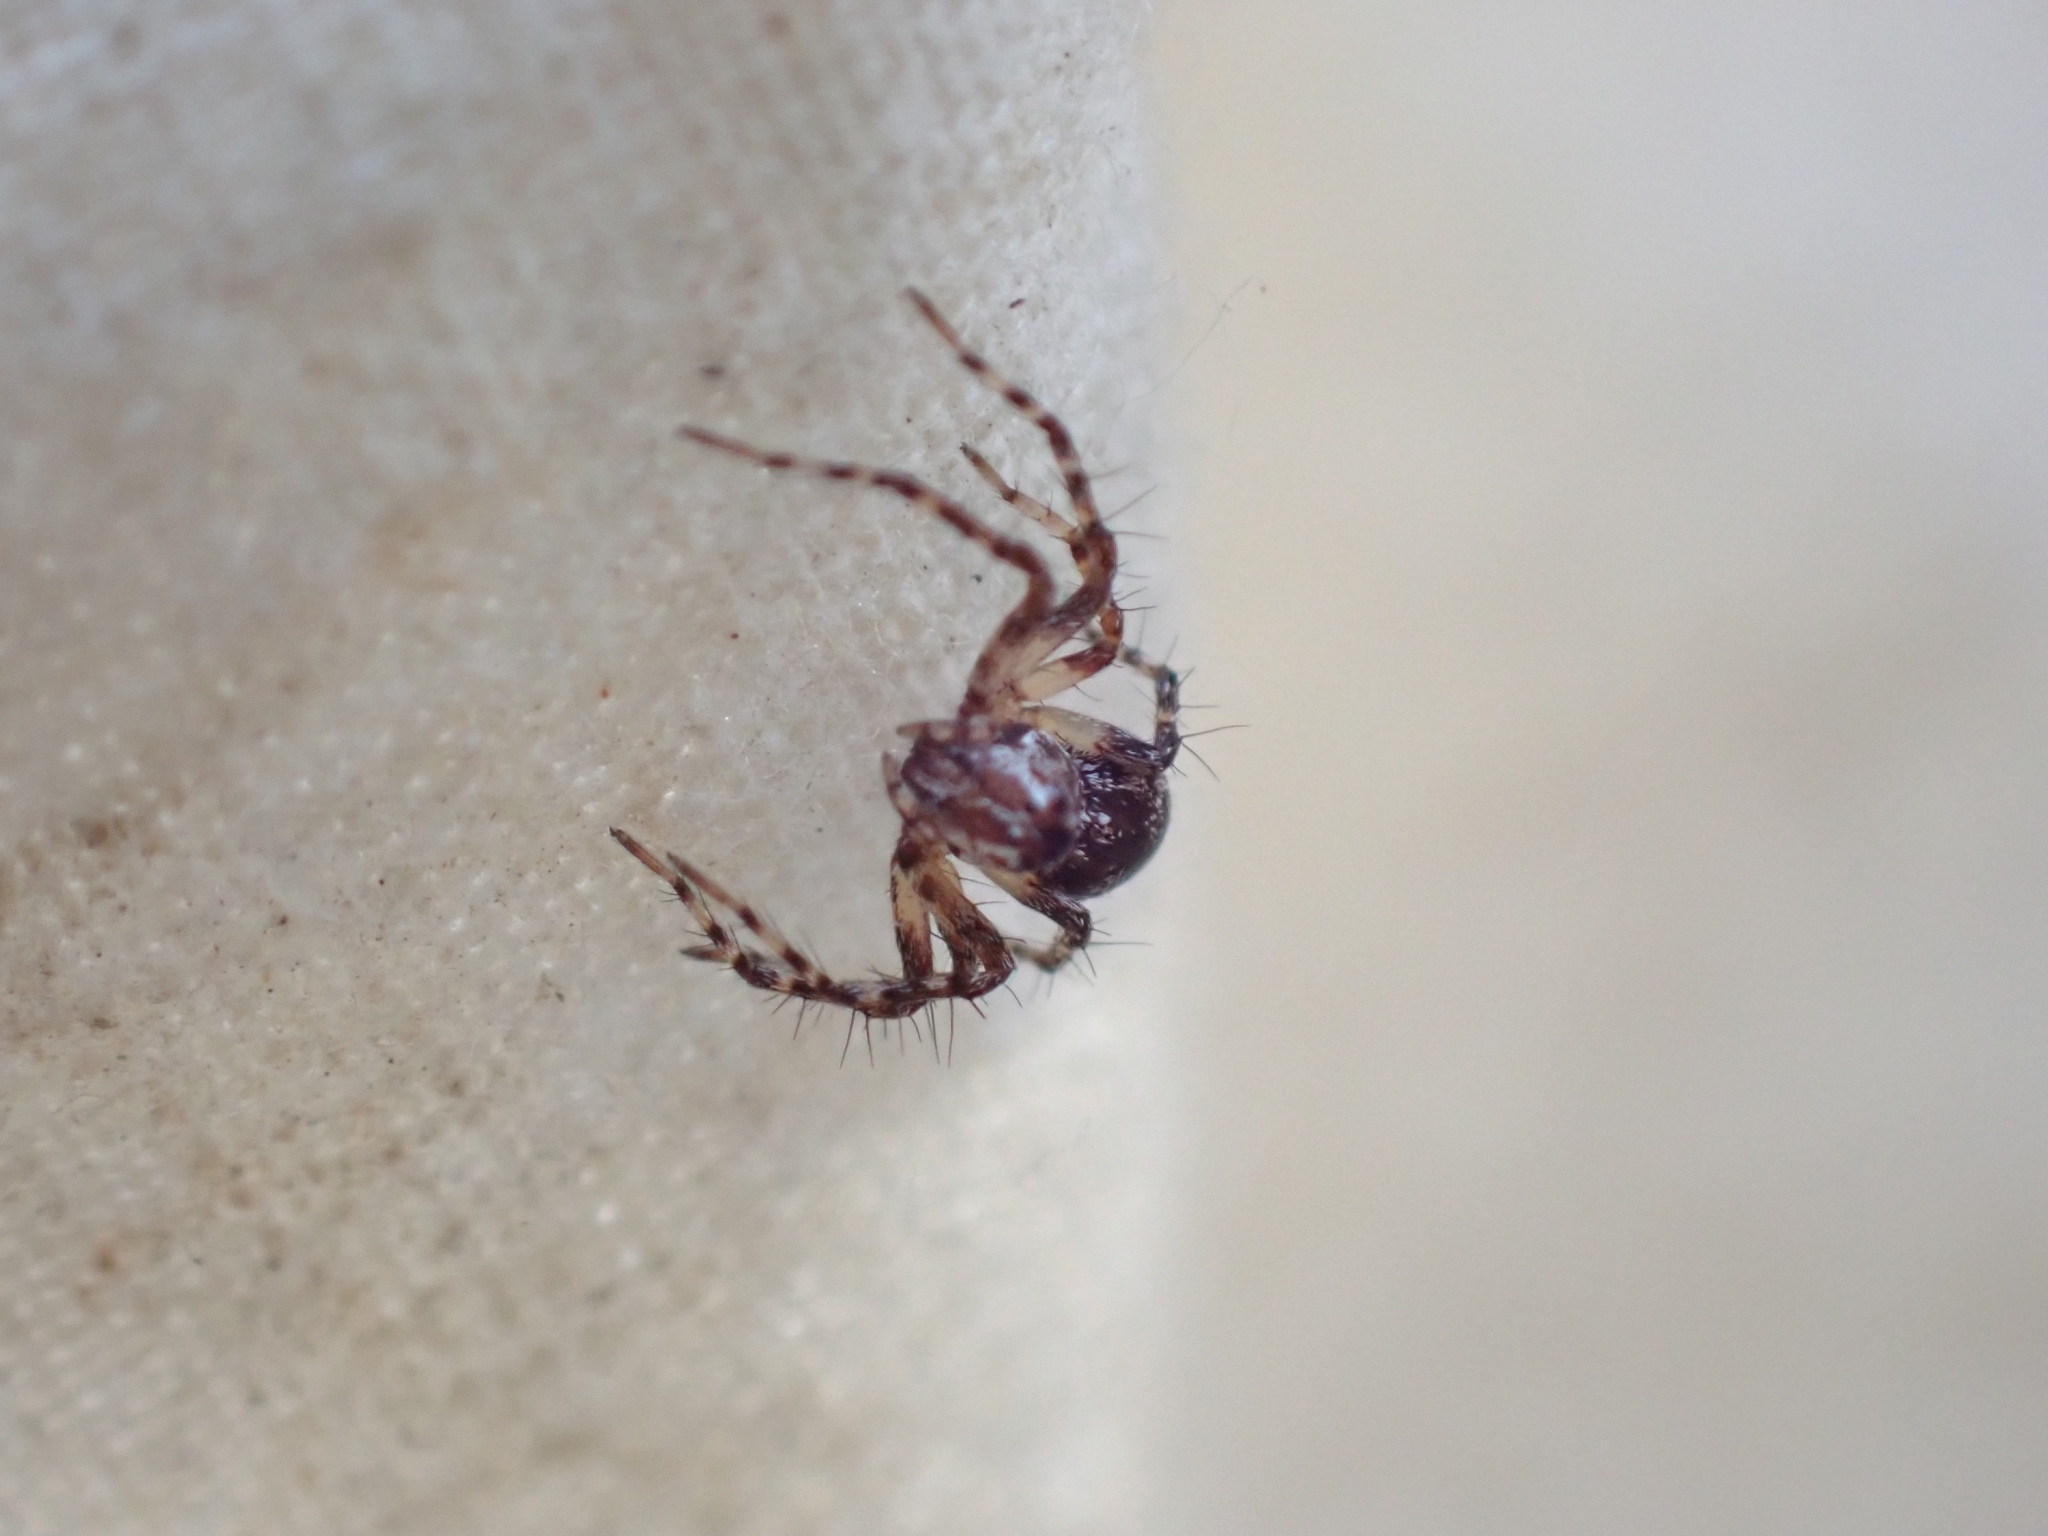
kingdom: Animalia
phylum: Arthropoda
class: Arachnida
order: Araneae
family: Oxyopidae
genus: Oxyopes
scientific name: Oxyopes scalaris
